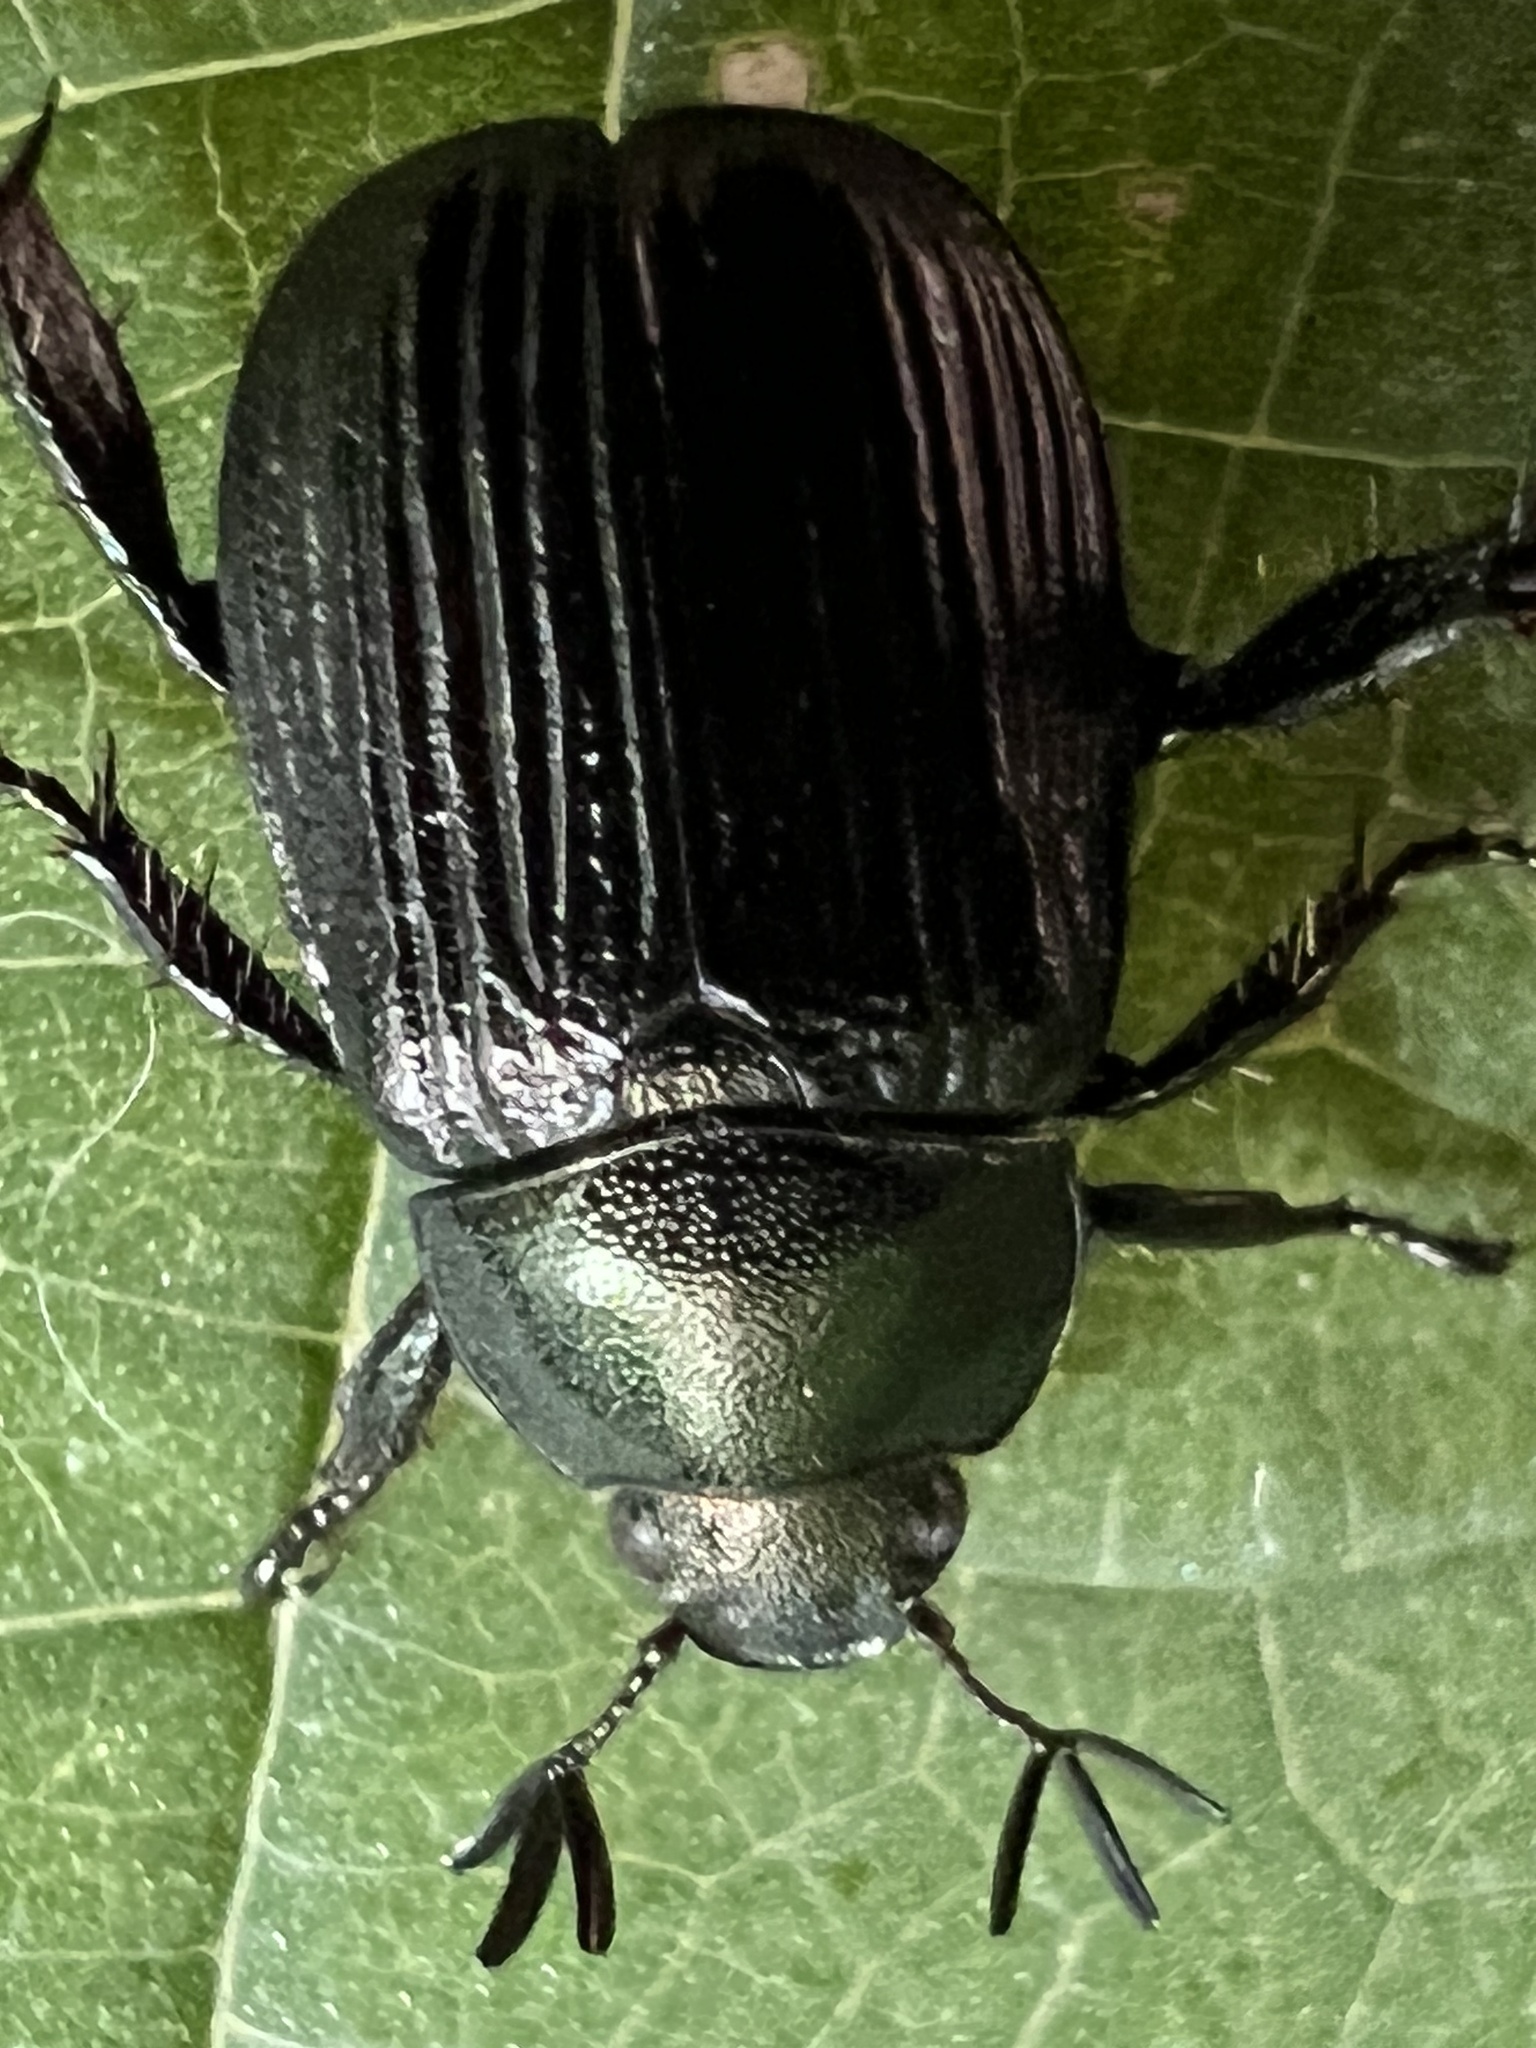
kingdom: Animalia
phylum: Arthropoda
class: Insecta
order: Coleoptera
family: Scarabaeidae
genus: Exomala
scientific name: Exomala orientalis
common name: Oriental beetle
